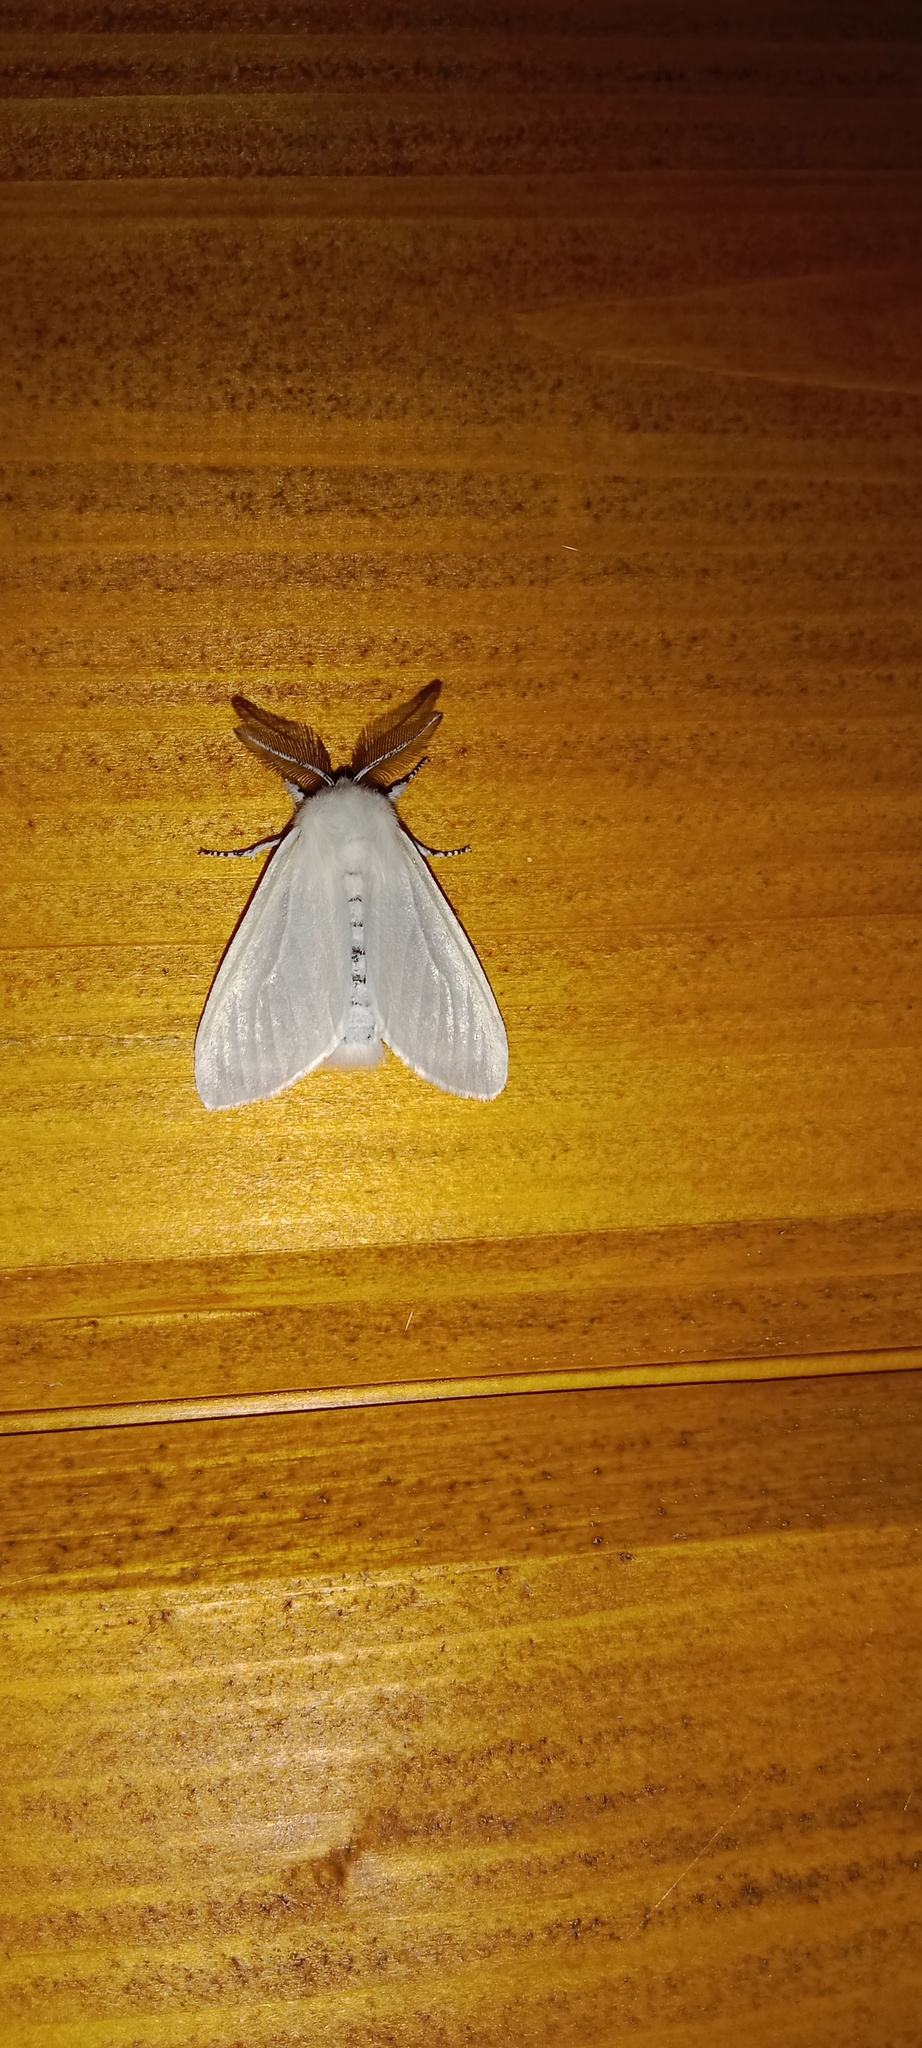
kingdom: Animalia
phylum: Arthropoda
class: Insecta
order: Lepidoptera
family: Erebidae
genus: Leucoma
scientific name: Leucoma salicis
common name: White satin moth
